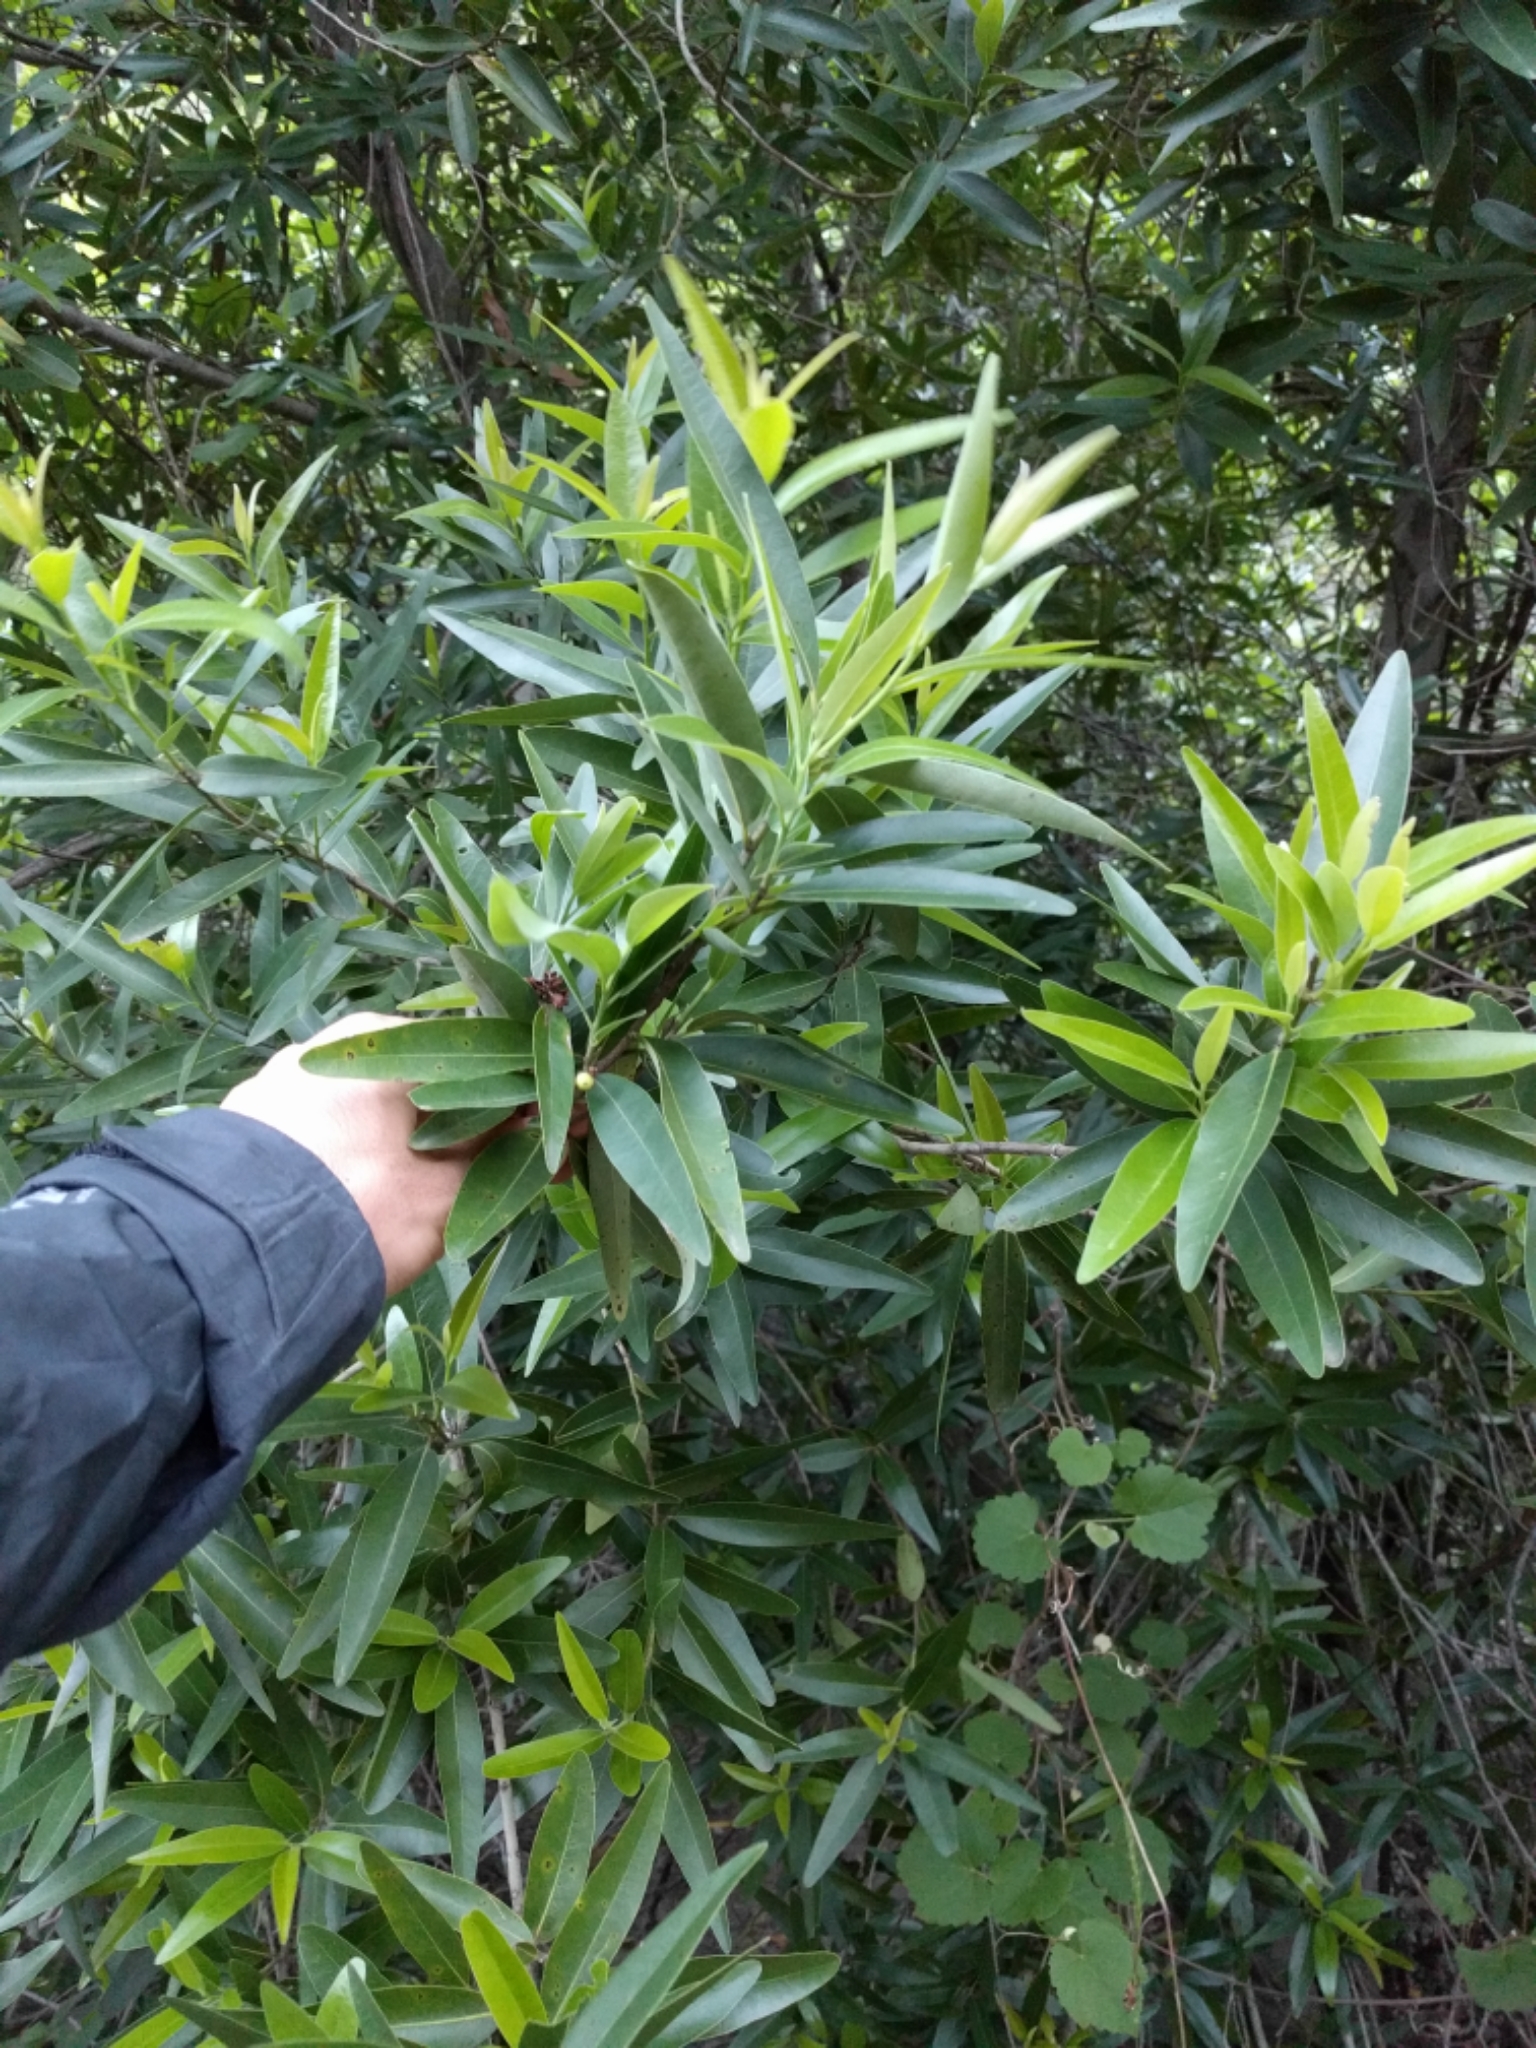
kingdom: Plantae
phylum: Tracheophyta
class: Magnoliopsida
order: Laurales
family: Lauraceae
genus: Umbellularia
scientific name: Umbellularia californica
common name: California bay
